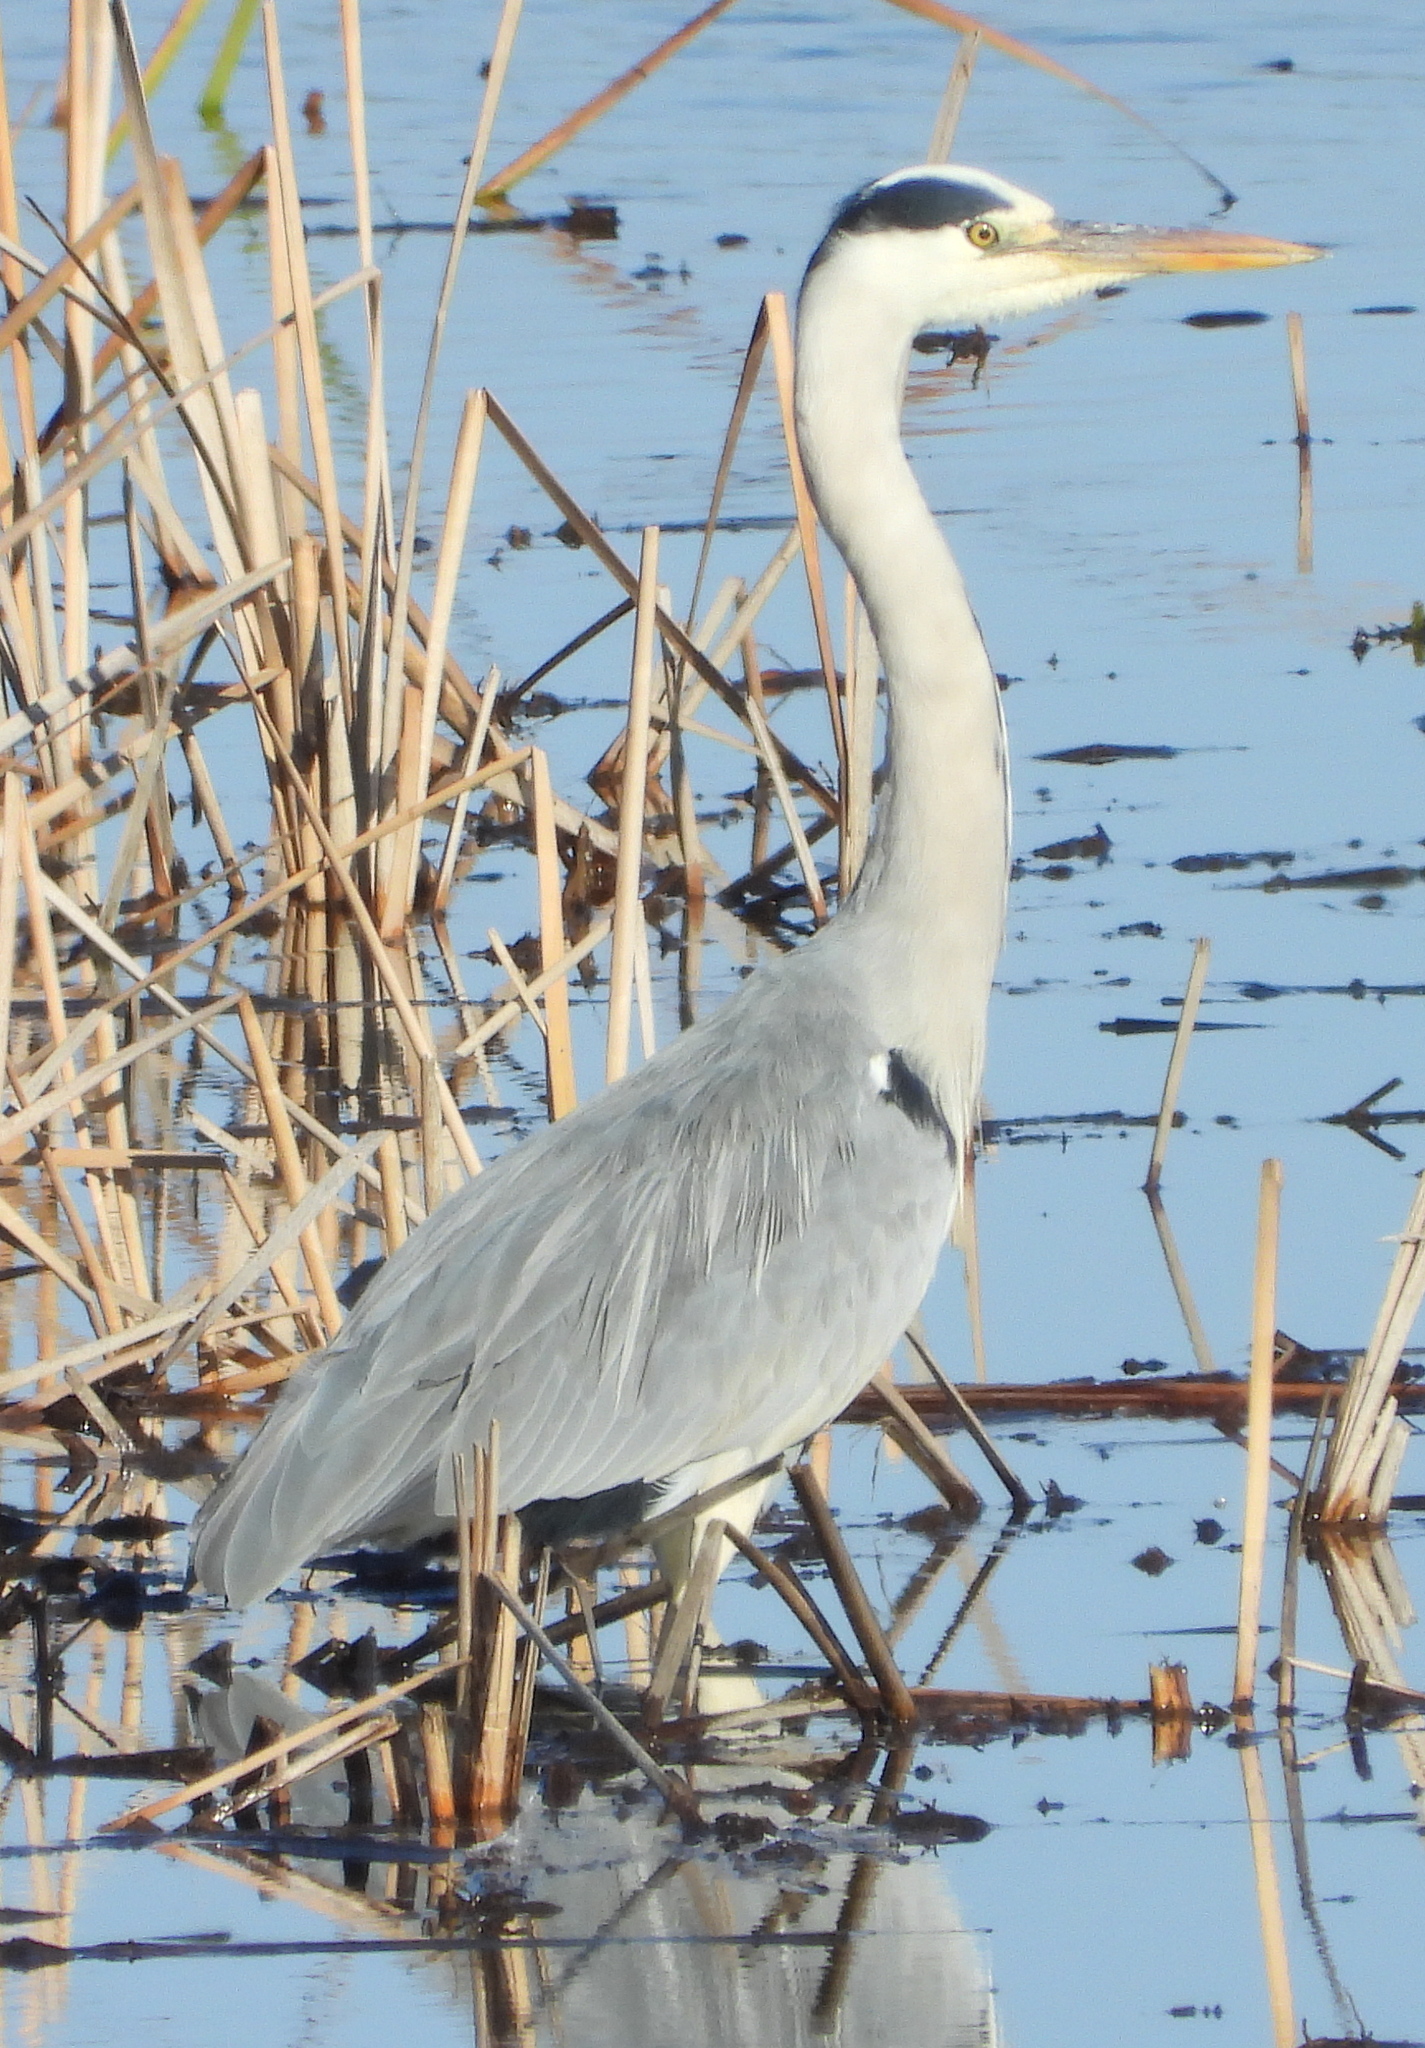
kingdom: Animalia
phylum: Chordata
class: Aves
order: Pelecaniformes
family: Ardeidae
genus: Ardea
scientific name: Ardea cinerea
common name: Grey heron
